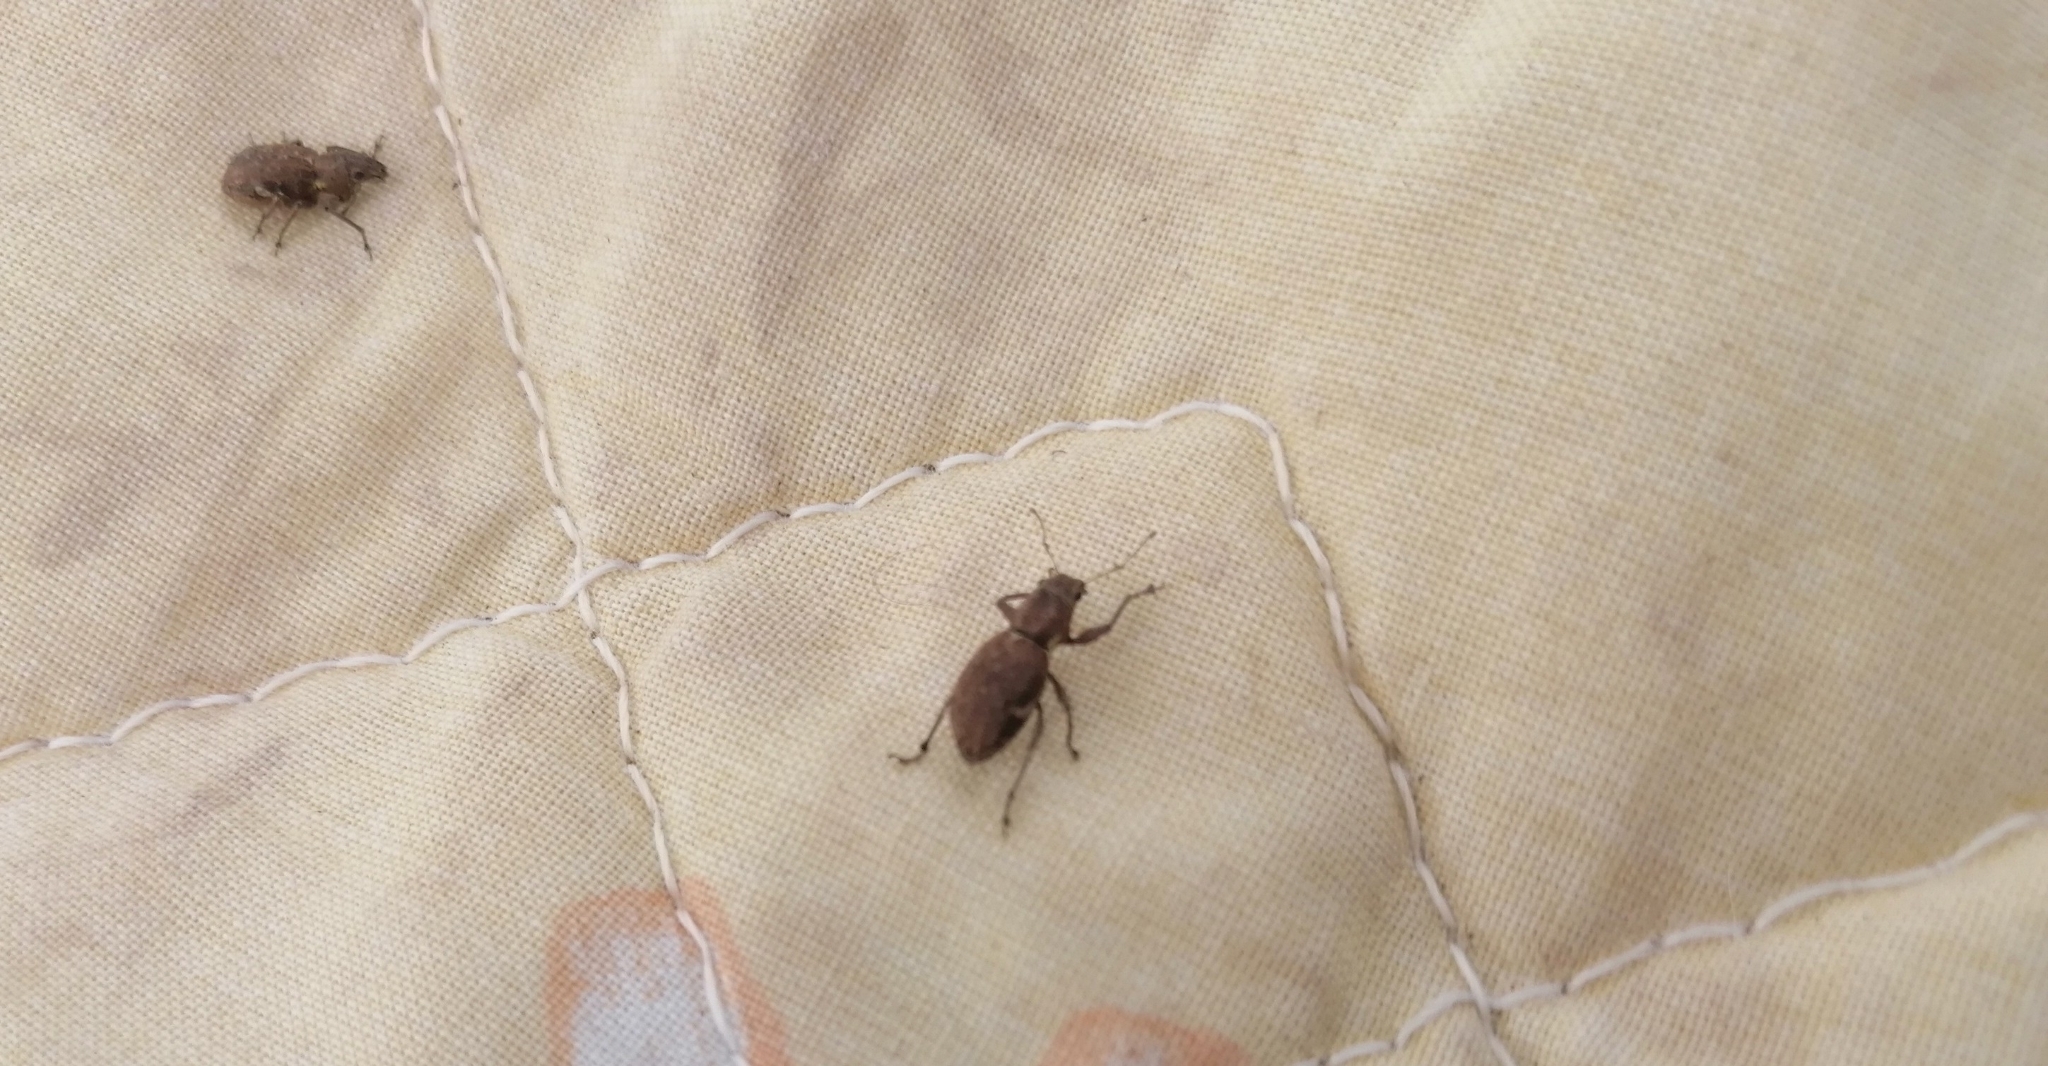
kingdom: Animalia
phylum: Arthropoda
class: Insecta
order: Coleoptera
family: Curculionidae
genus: Naupactus
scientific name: Naupactus cervinus
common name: Fuller rose beetle
